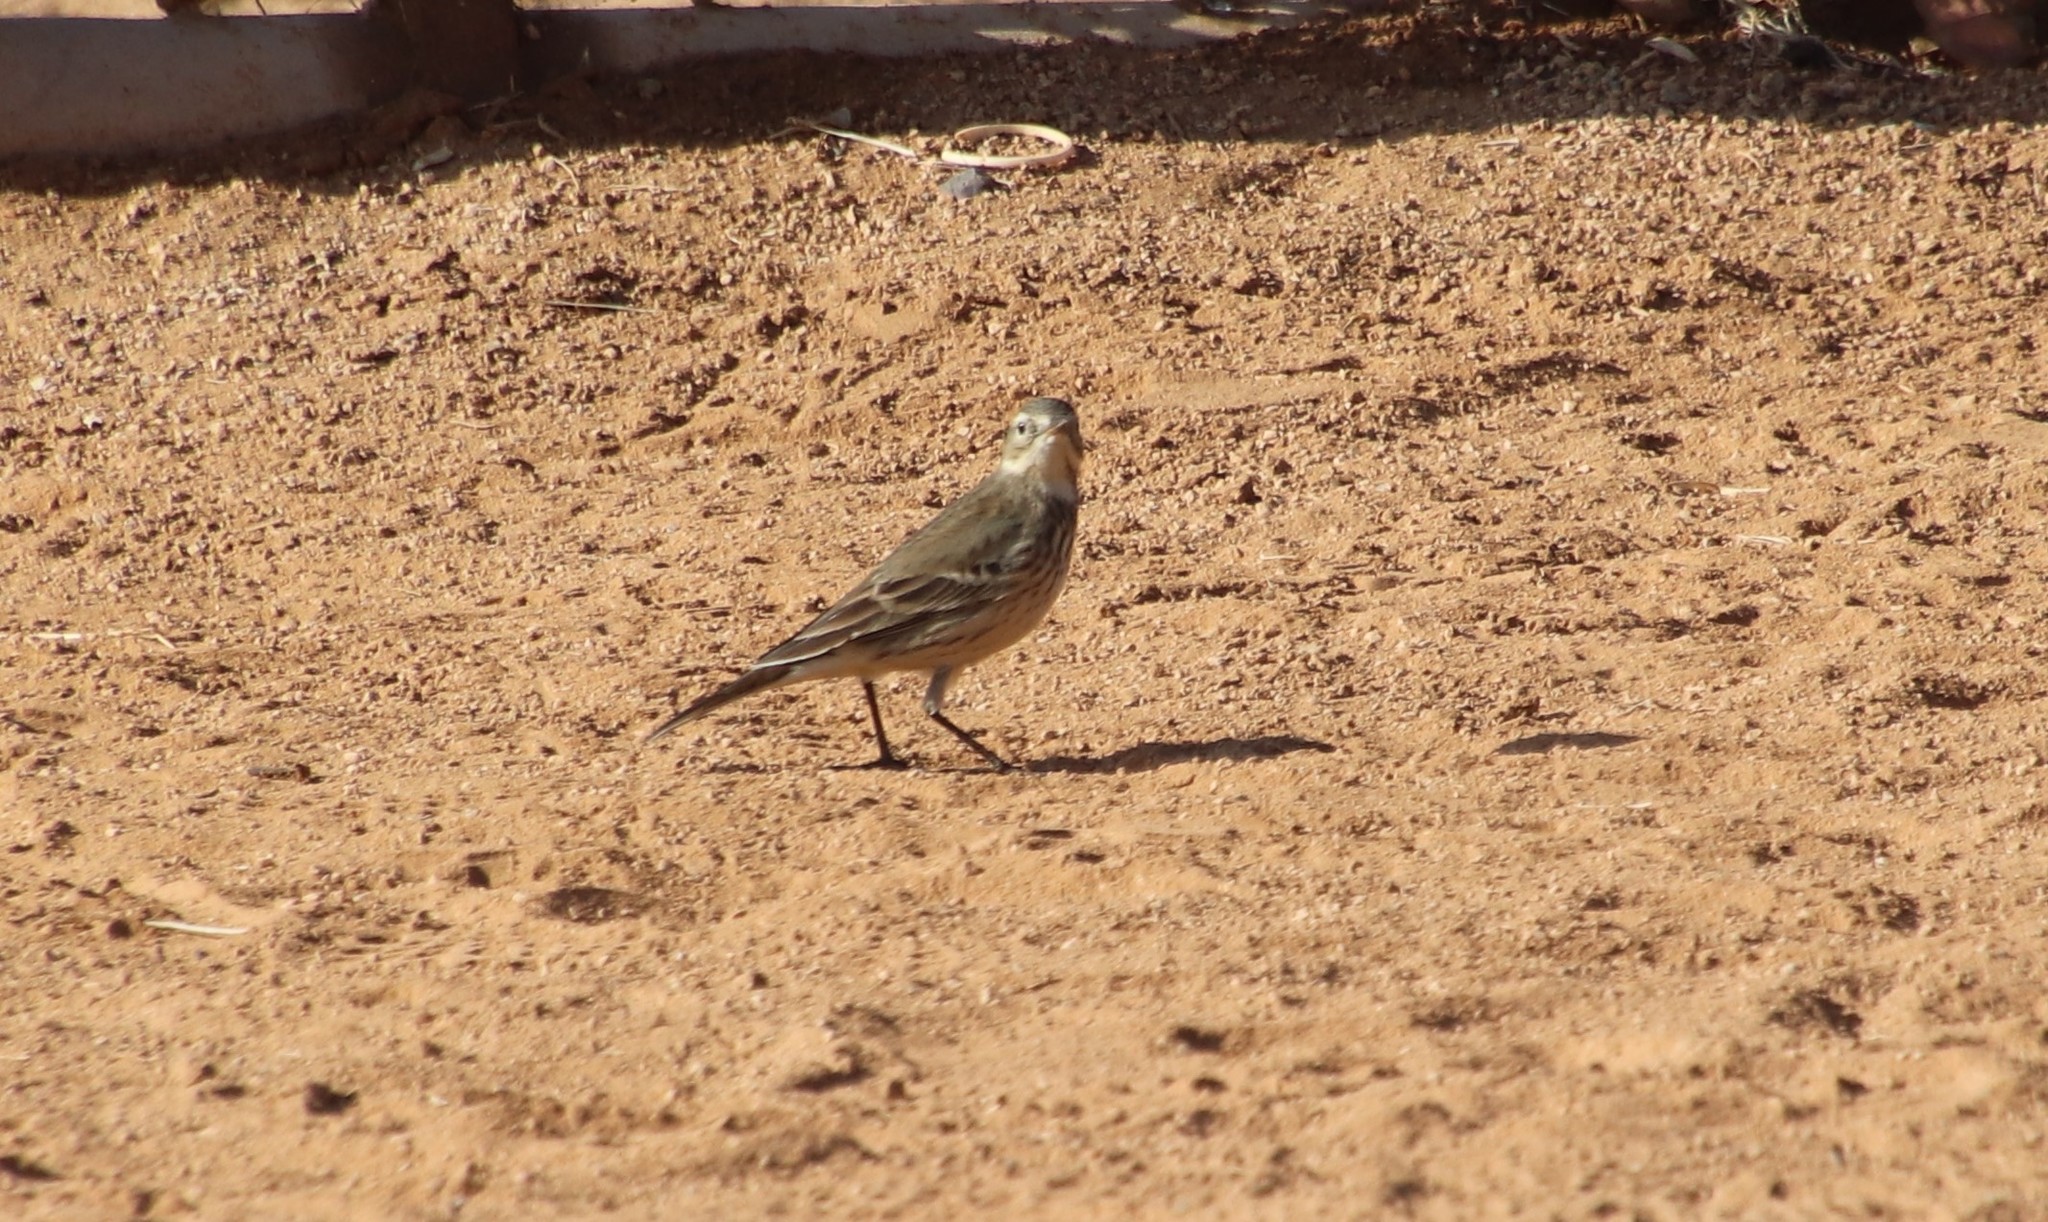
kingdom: Animalia
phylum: Chordata
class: Aves
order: Passeriformes
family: Motacillidae
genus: Anthus
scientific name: Anthus rubescens
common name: Buff-bellied pipit
